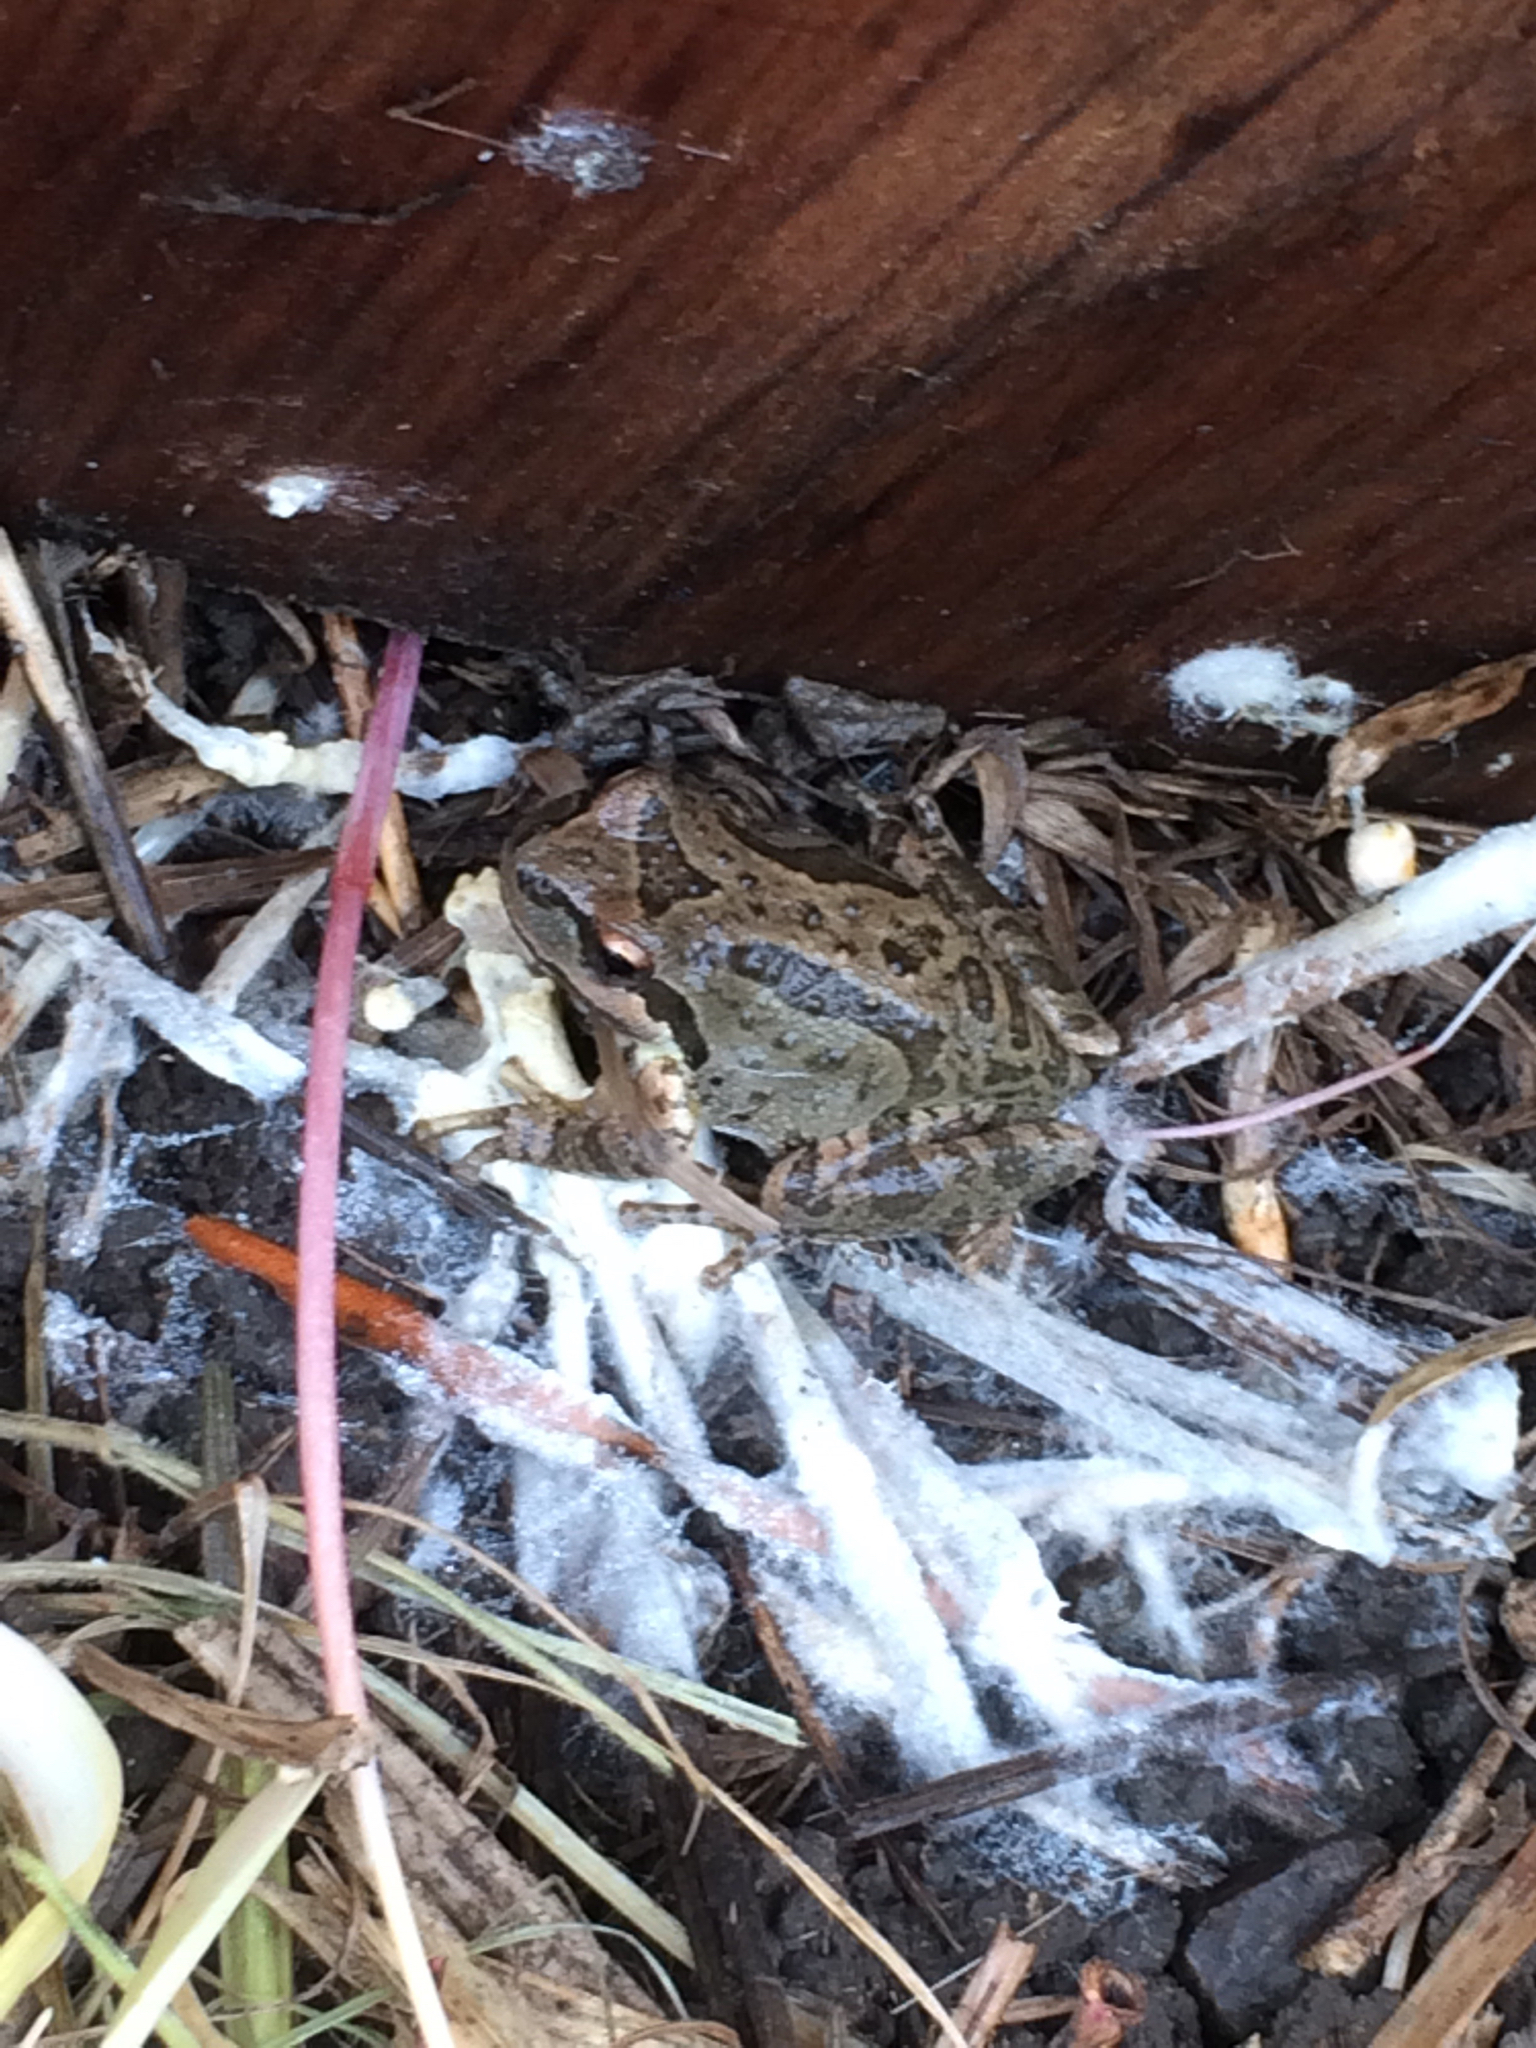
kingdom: Animalia
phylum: Chordata
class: Amphibia
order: Anura
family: Hylidae
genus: Pseudacris
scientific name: Pseudacris regilla
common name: Pacific chorus frog
